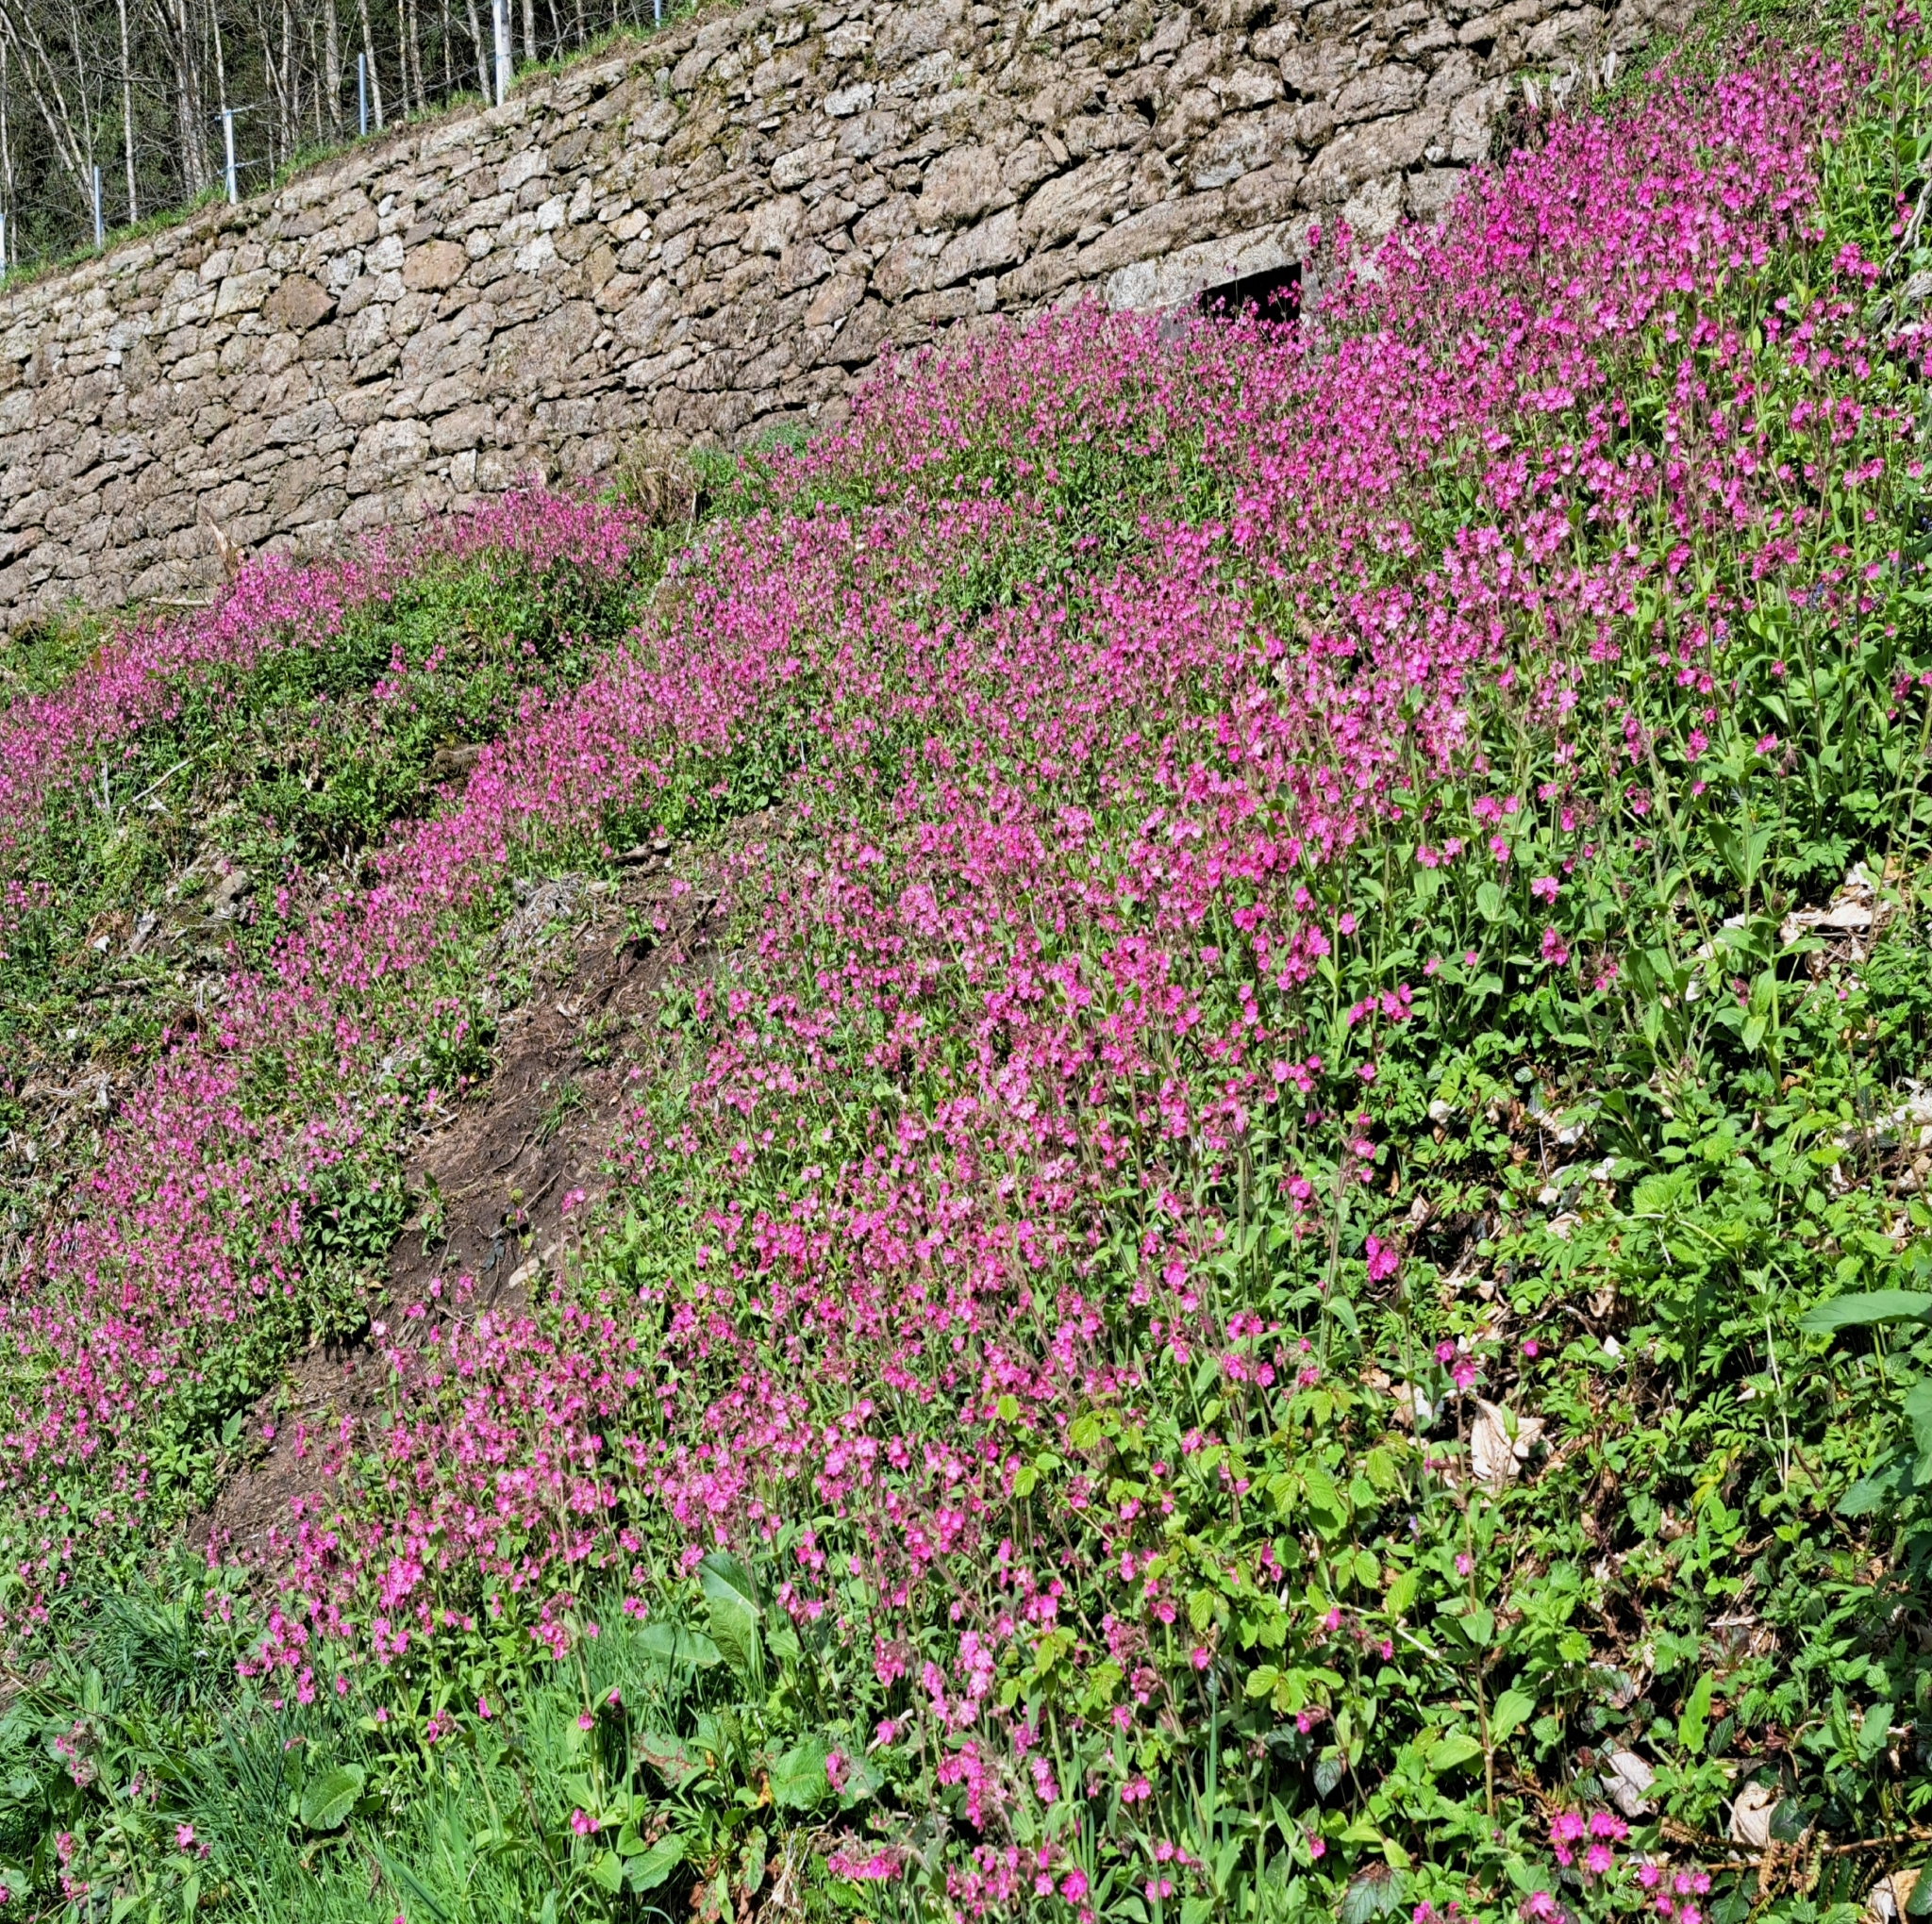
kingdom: Plantae
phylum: Tracheophyta
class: Magnoliopsida
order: Caryophyllales
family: Caryophyllaceae
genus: Silene
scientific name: Silene dioica
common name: Red campion
